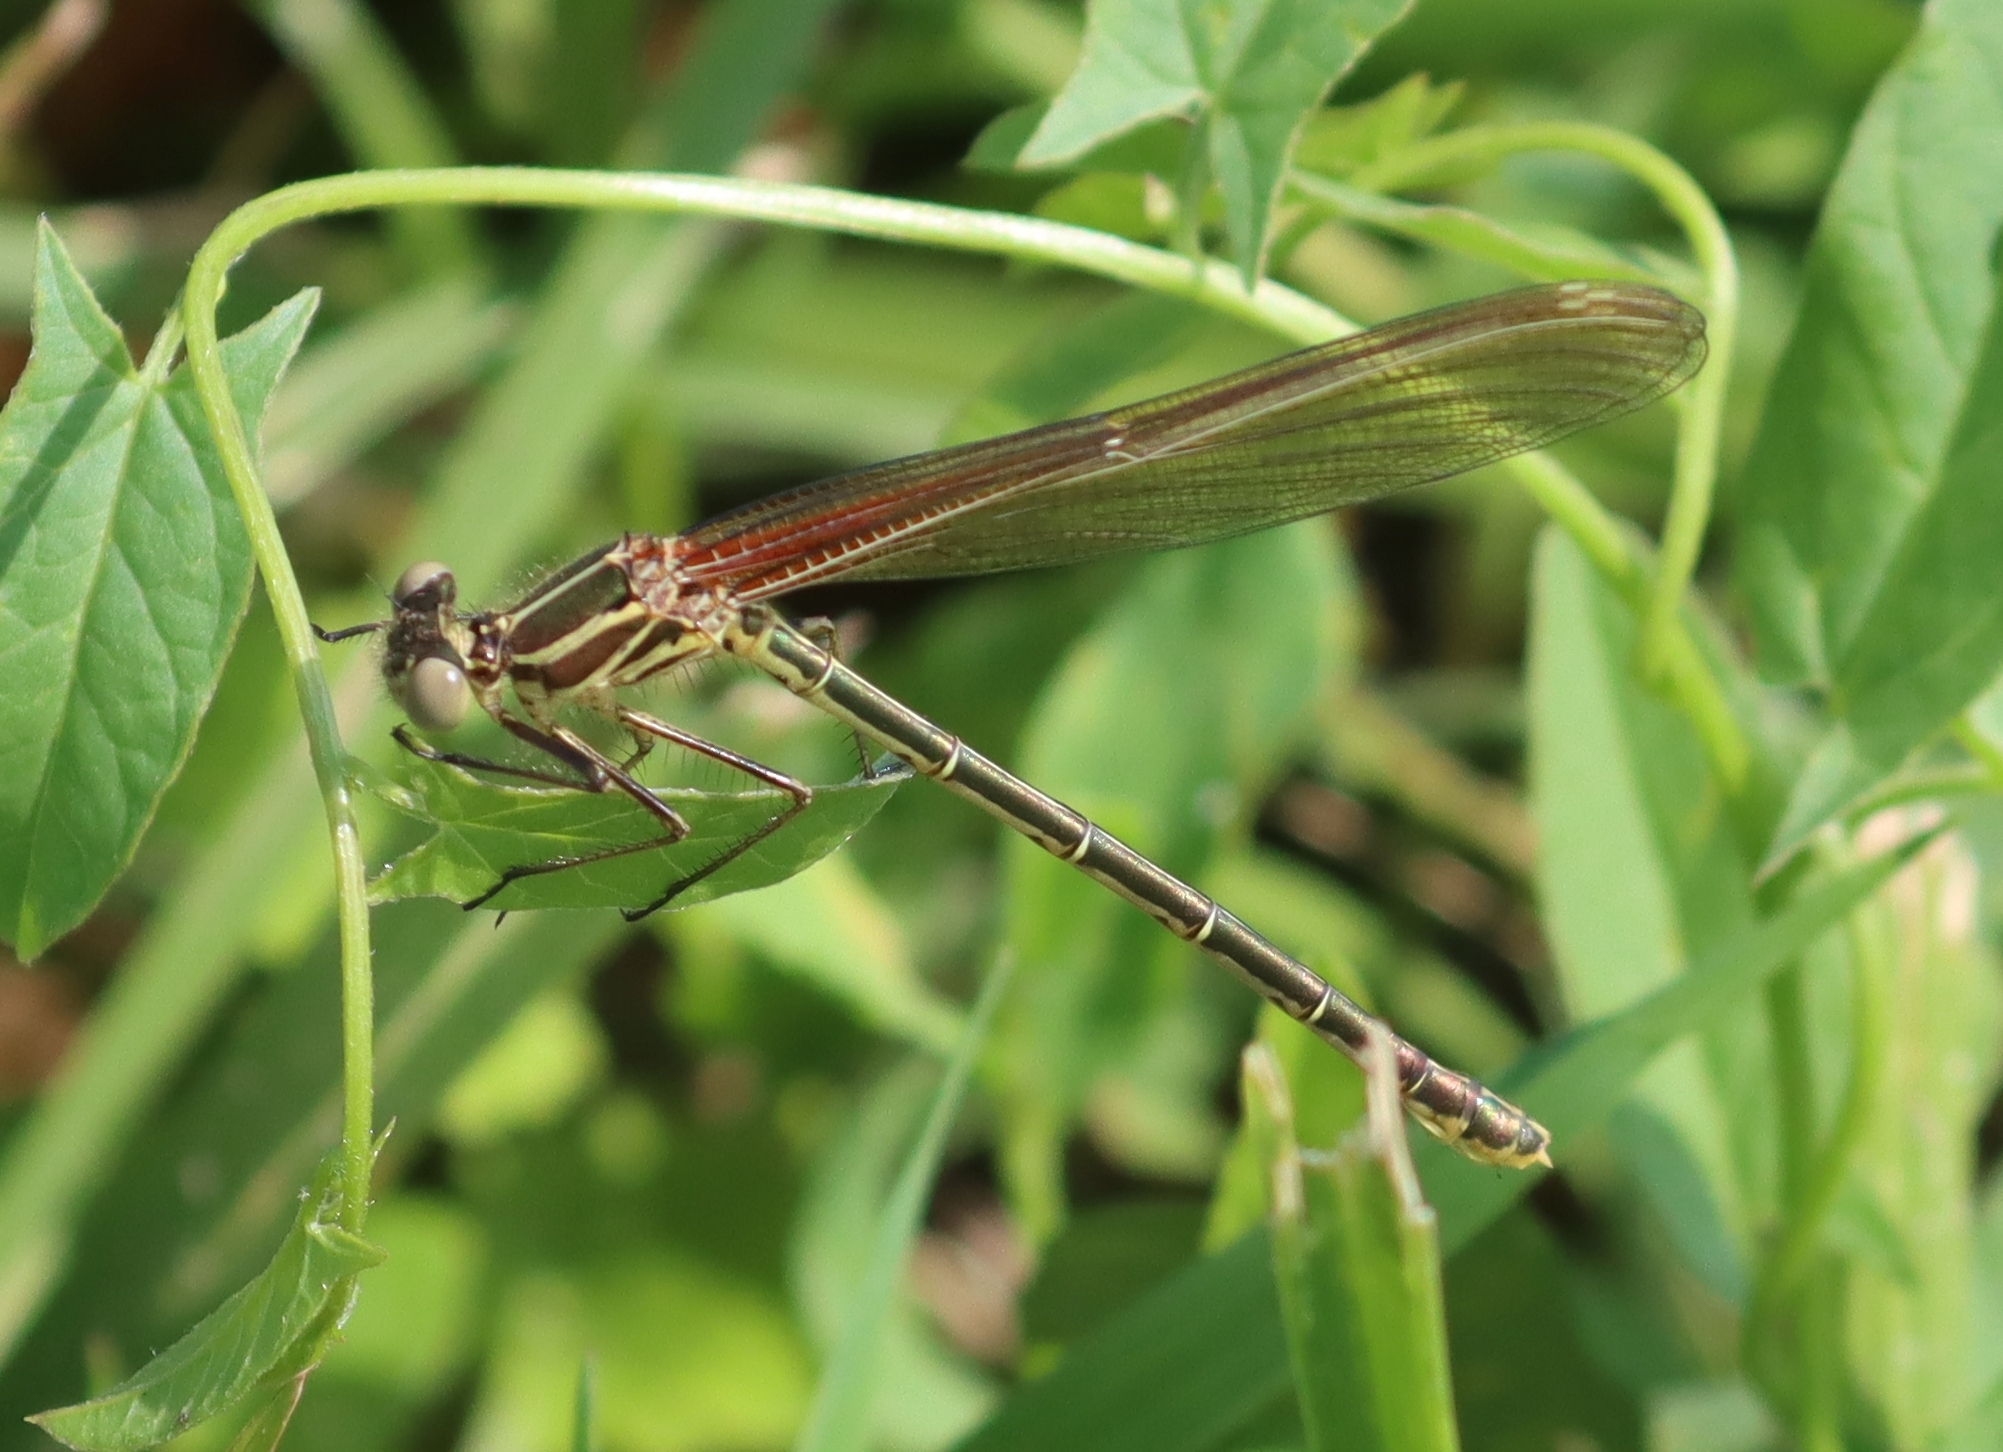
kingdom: Animalia
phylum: Arthropoda
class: Insecta
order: Odonata
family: Calopterygidae
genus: Hetaerina
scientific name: Hetaerina americana
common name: American rubyspot
